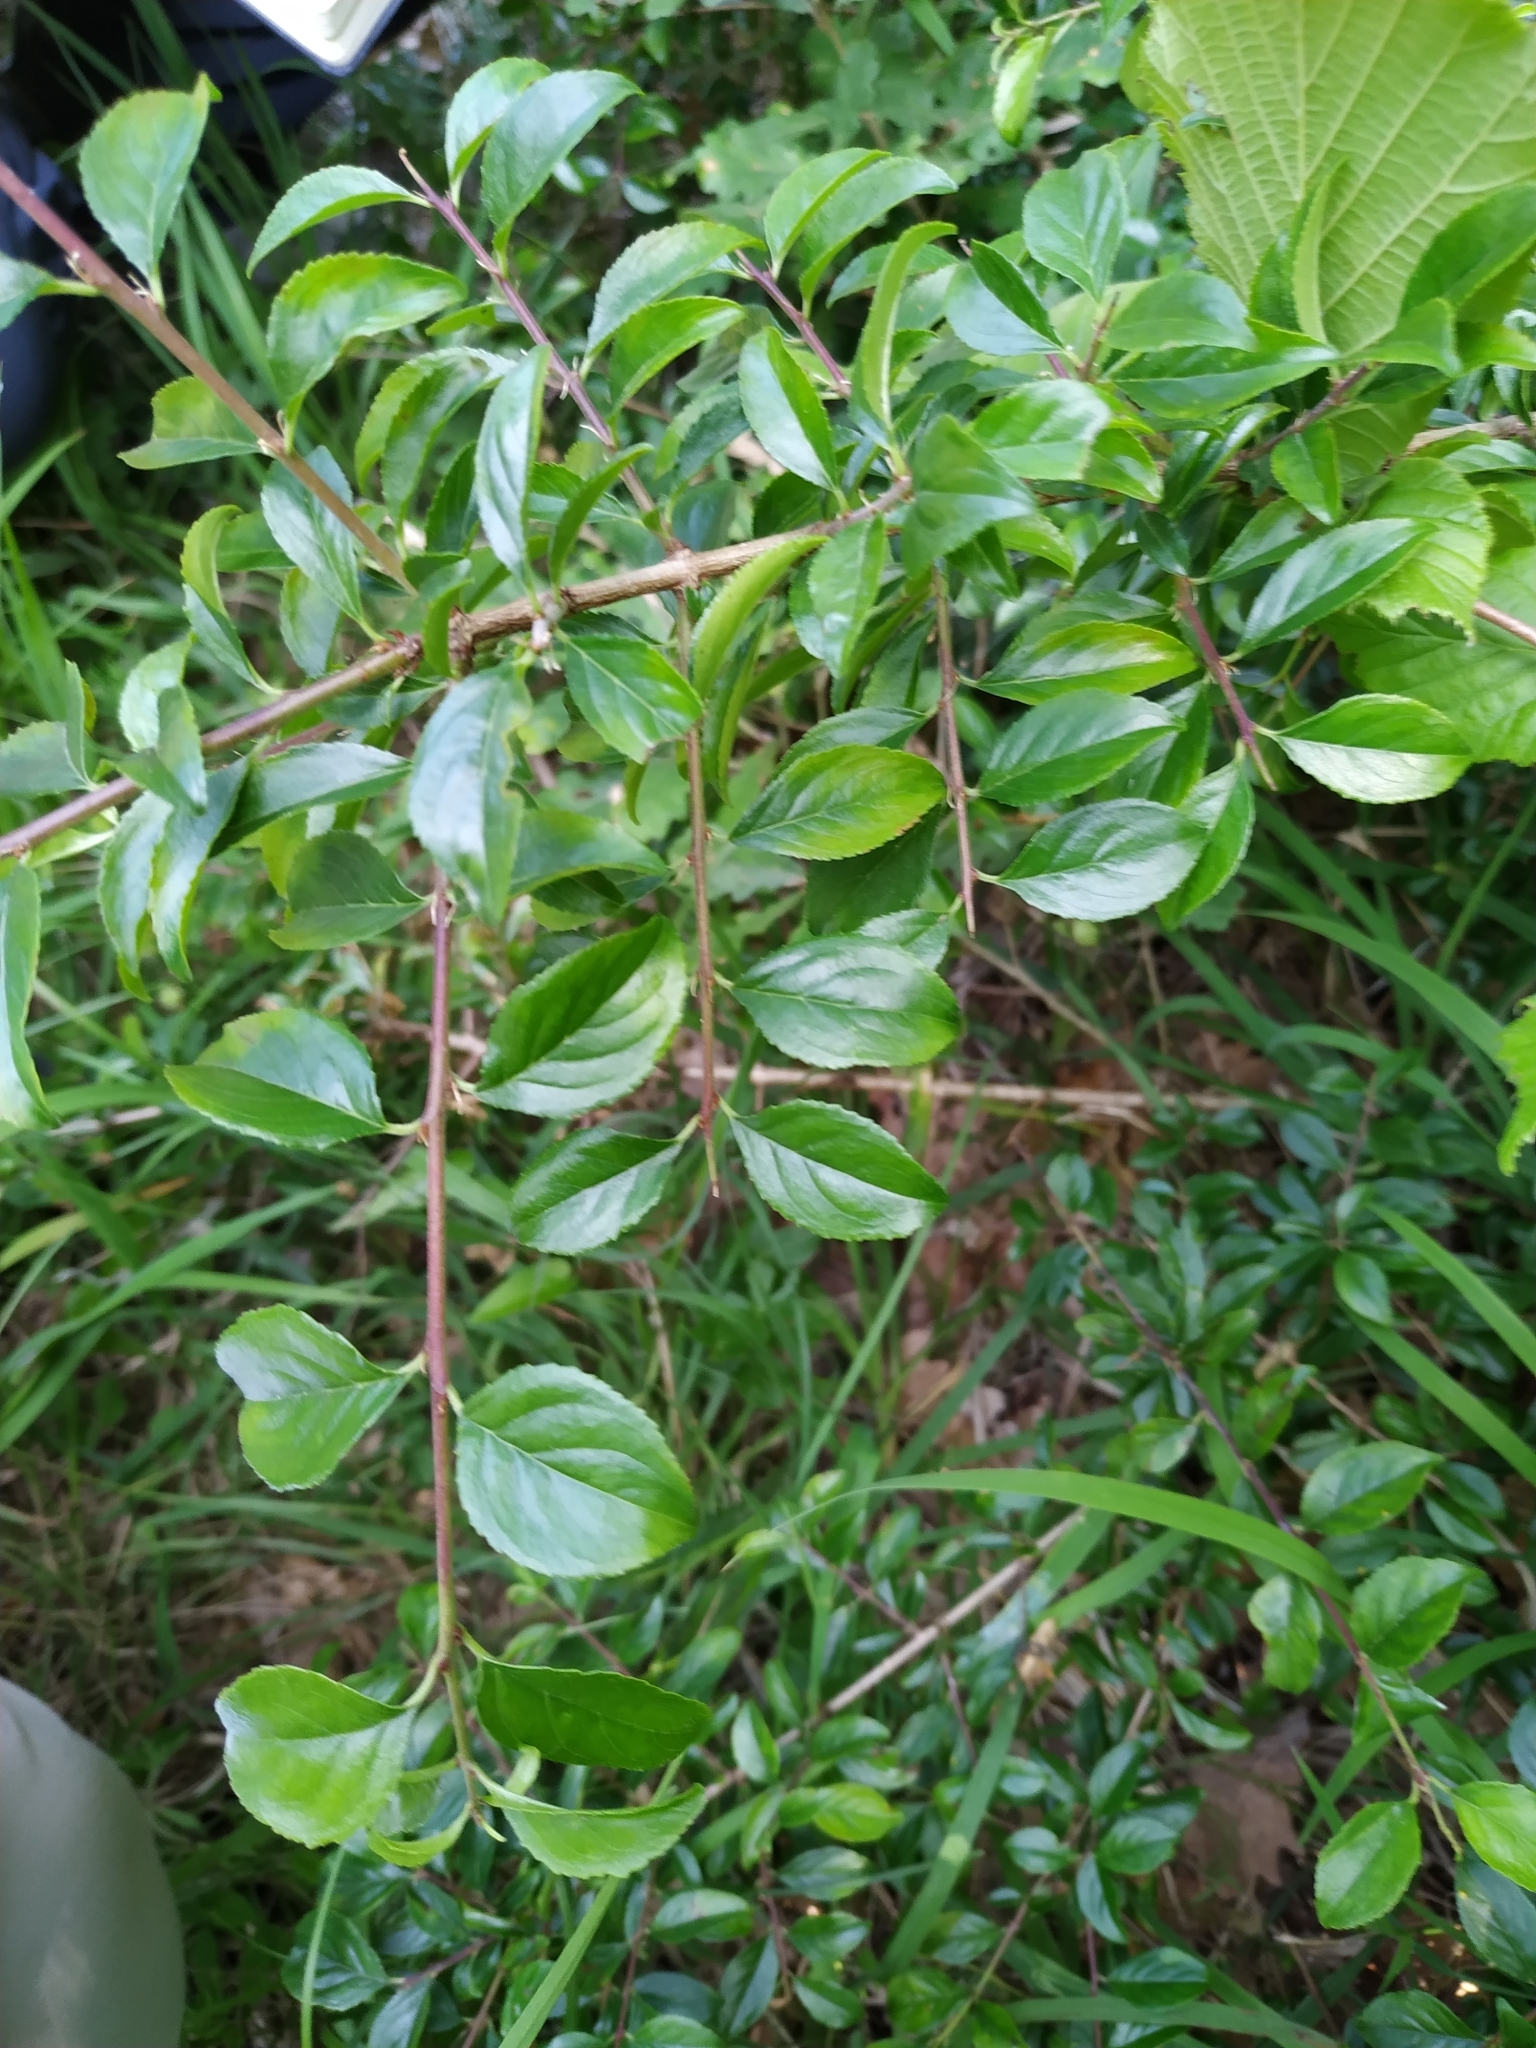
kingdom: Plantae
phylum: Tracheophyta
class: Magnoliopsida
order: Rosales
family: Rhamnaceae
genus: Rhamnus
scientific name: Rhamnus saxatilis
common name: Rock buckthorn
